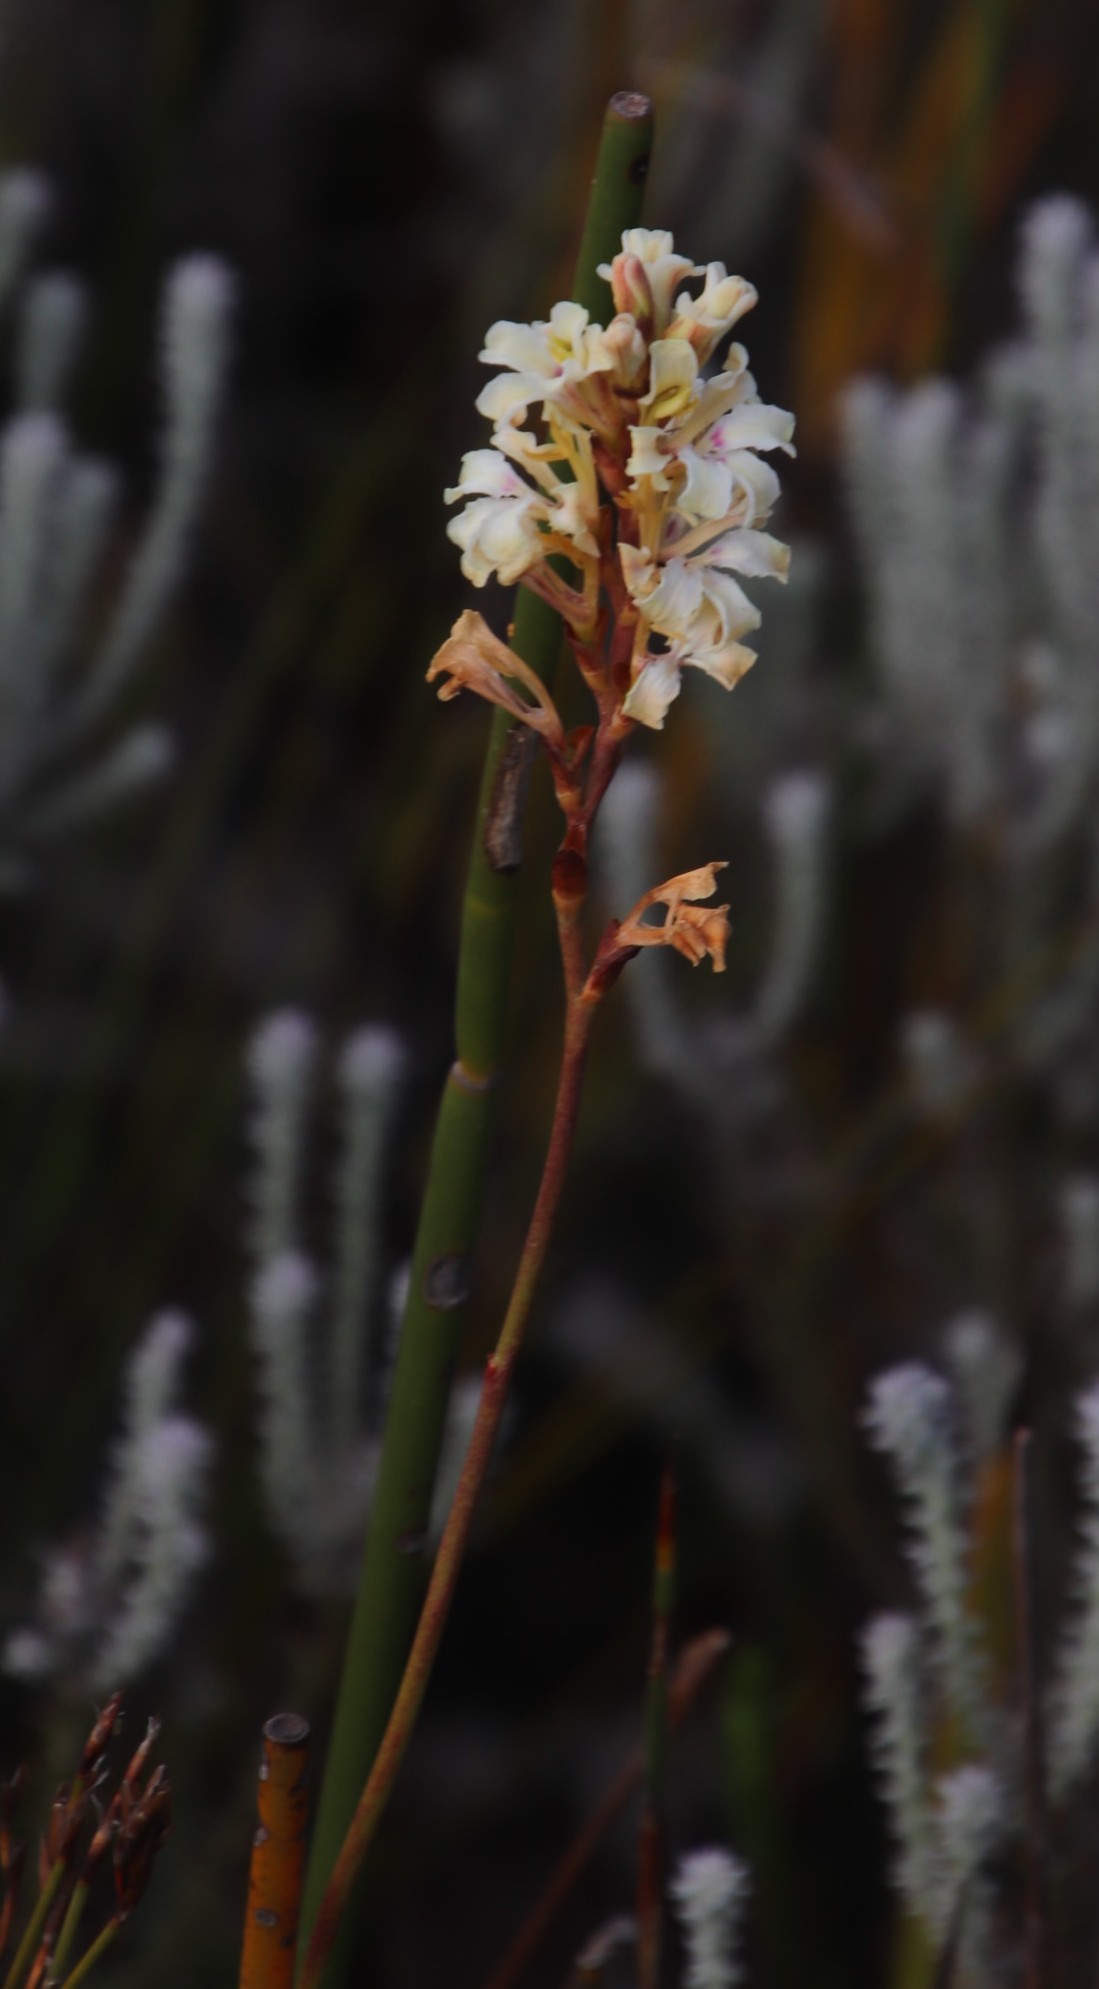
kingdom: Plantae
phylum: Tracheophyta
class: Liliopsida
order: Asparagales
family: Iridaceae
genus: Tritoniopsis
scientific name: Tritoniopsis unguicularis
